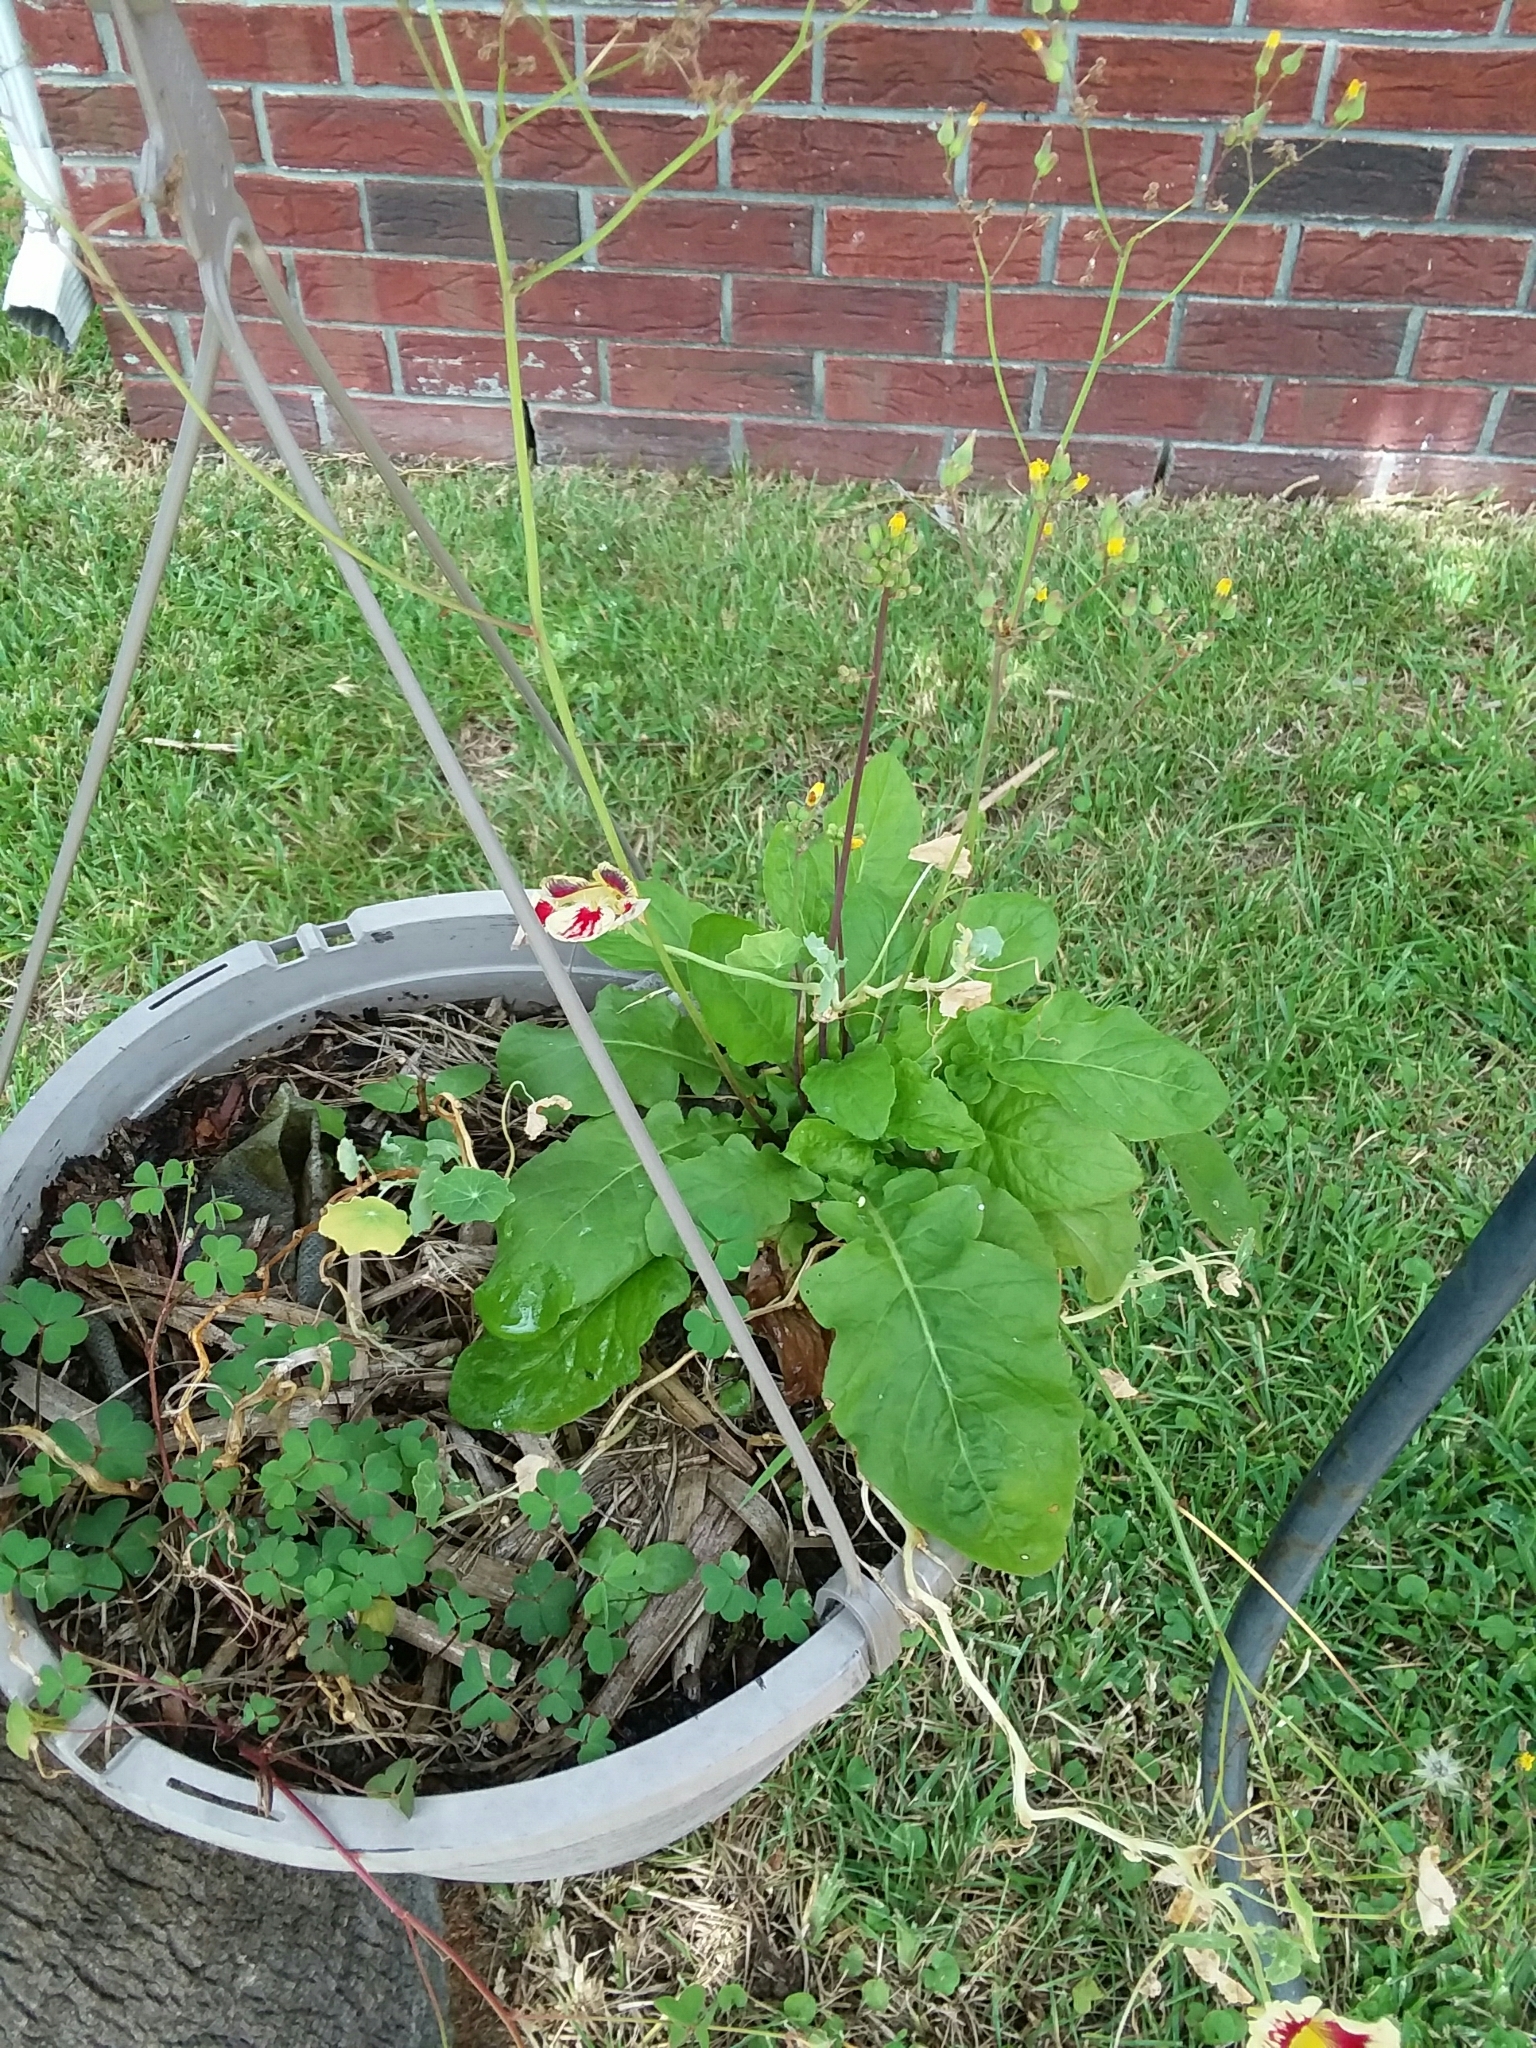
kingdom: Plantae
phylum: Tracheophyta
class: Magnoliopsida
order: Asterales
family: Asteraceae
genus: Youngia
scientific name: Youngia japonica
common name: Oriental false hawksbeard
